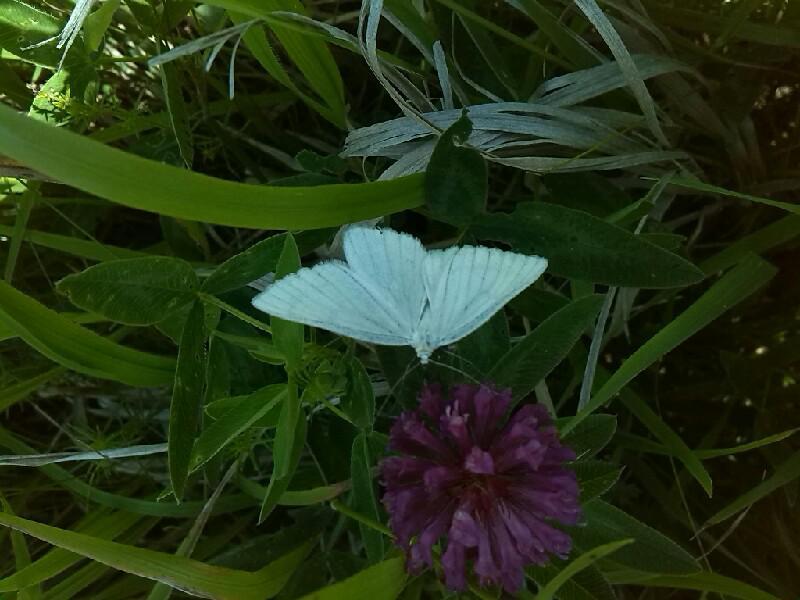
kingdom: Animalia
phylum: Arthropoda
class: Insecta
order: Lepidoptera
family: Geometridae
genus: Siona
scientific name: Siona lineata
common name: Black-veined moth
